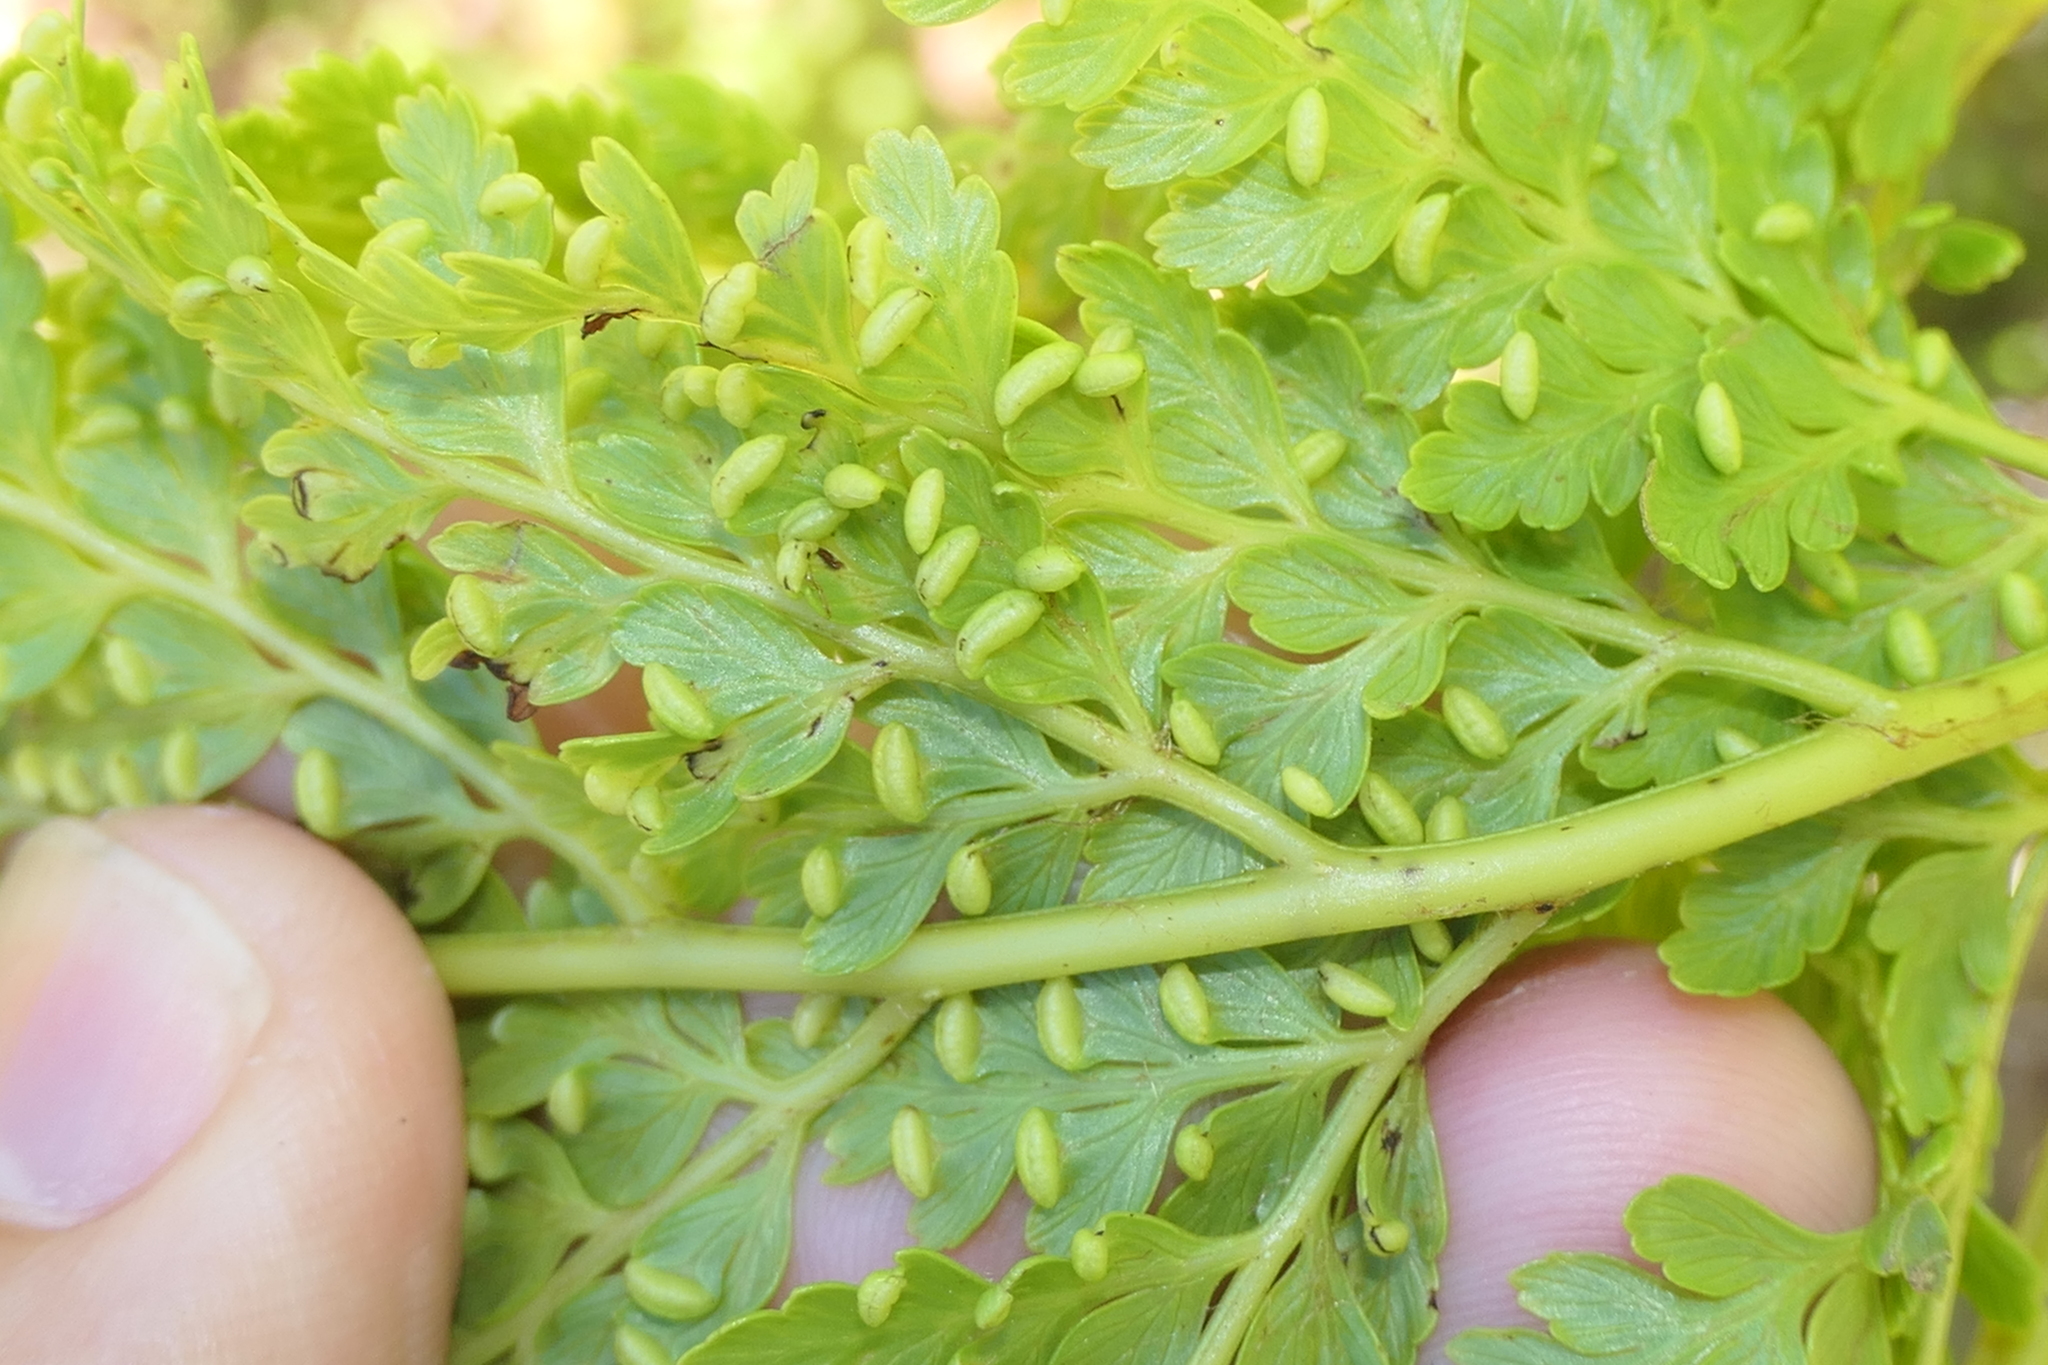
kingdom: Plantae
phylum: Tracheophyta
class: Polypodiopsida
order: Cyatheales
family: Culcitaceae
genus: Culcita
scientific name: Culcita macrocarpa
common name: Woolly tree fern
